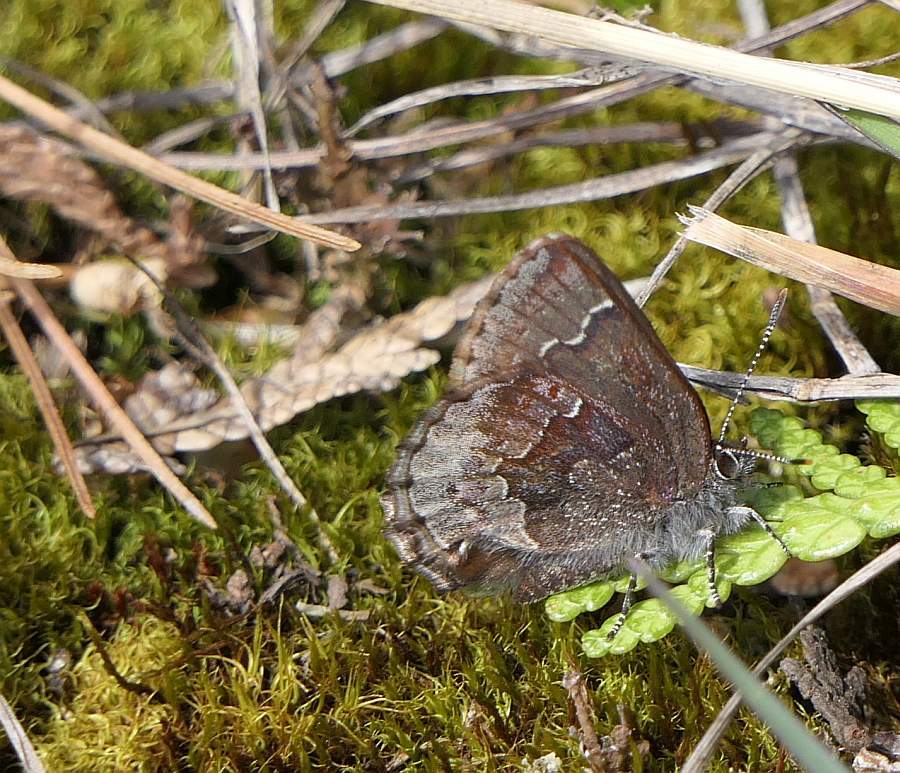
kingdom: Animalia
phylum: Arthropoda
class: Insecta
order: Lepidoptera
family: Lycaenidae
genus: Callophrys
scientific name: Callophrys polios
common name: Hoary elfin
